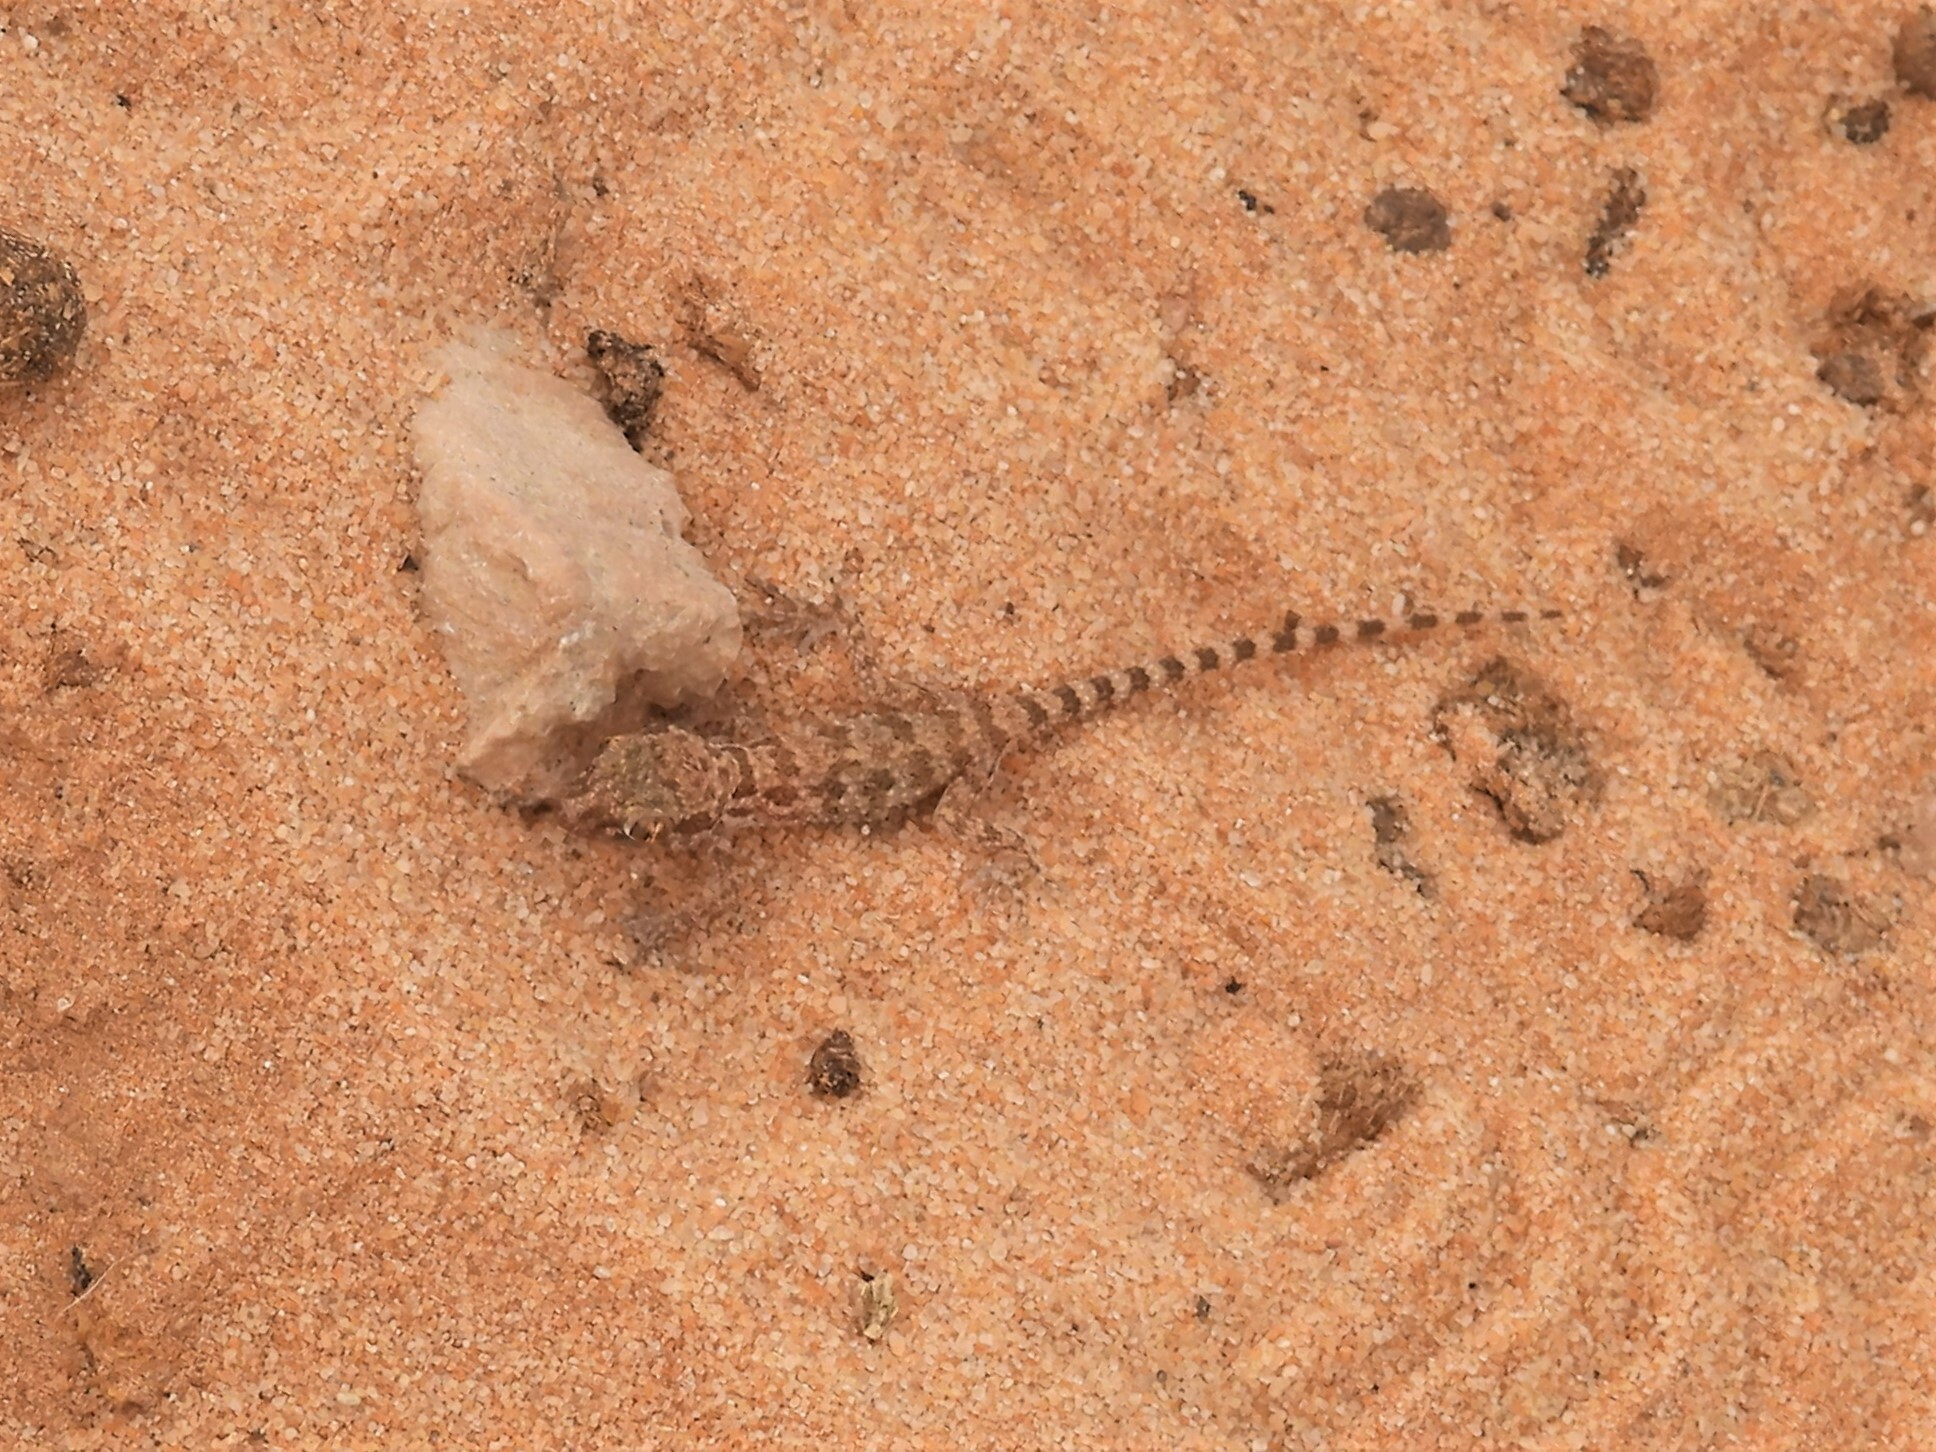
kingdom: Animalia
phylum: Chordata
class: Squamata
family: Gekkonidae
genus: Bunopus
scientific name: Bunopus tuberculatus
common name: Southern tuberculated gecko
